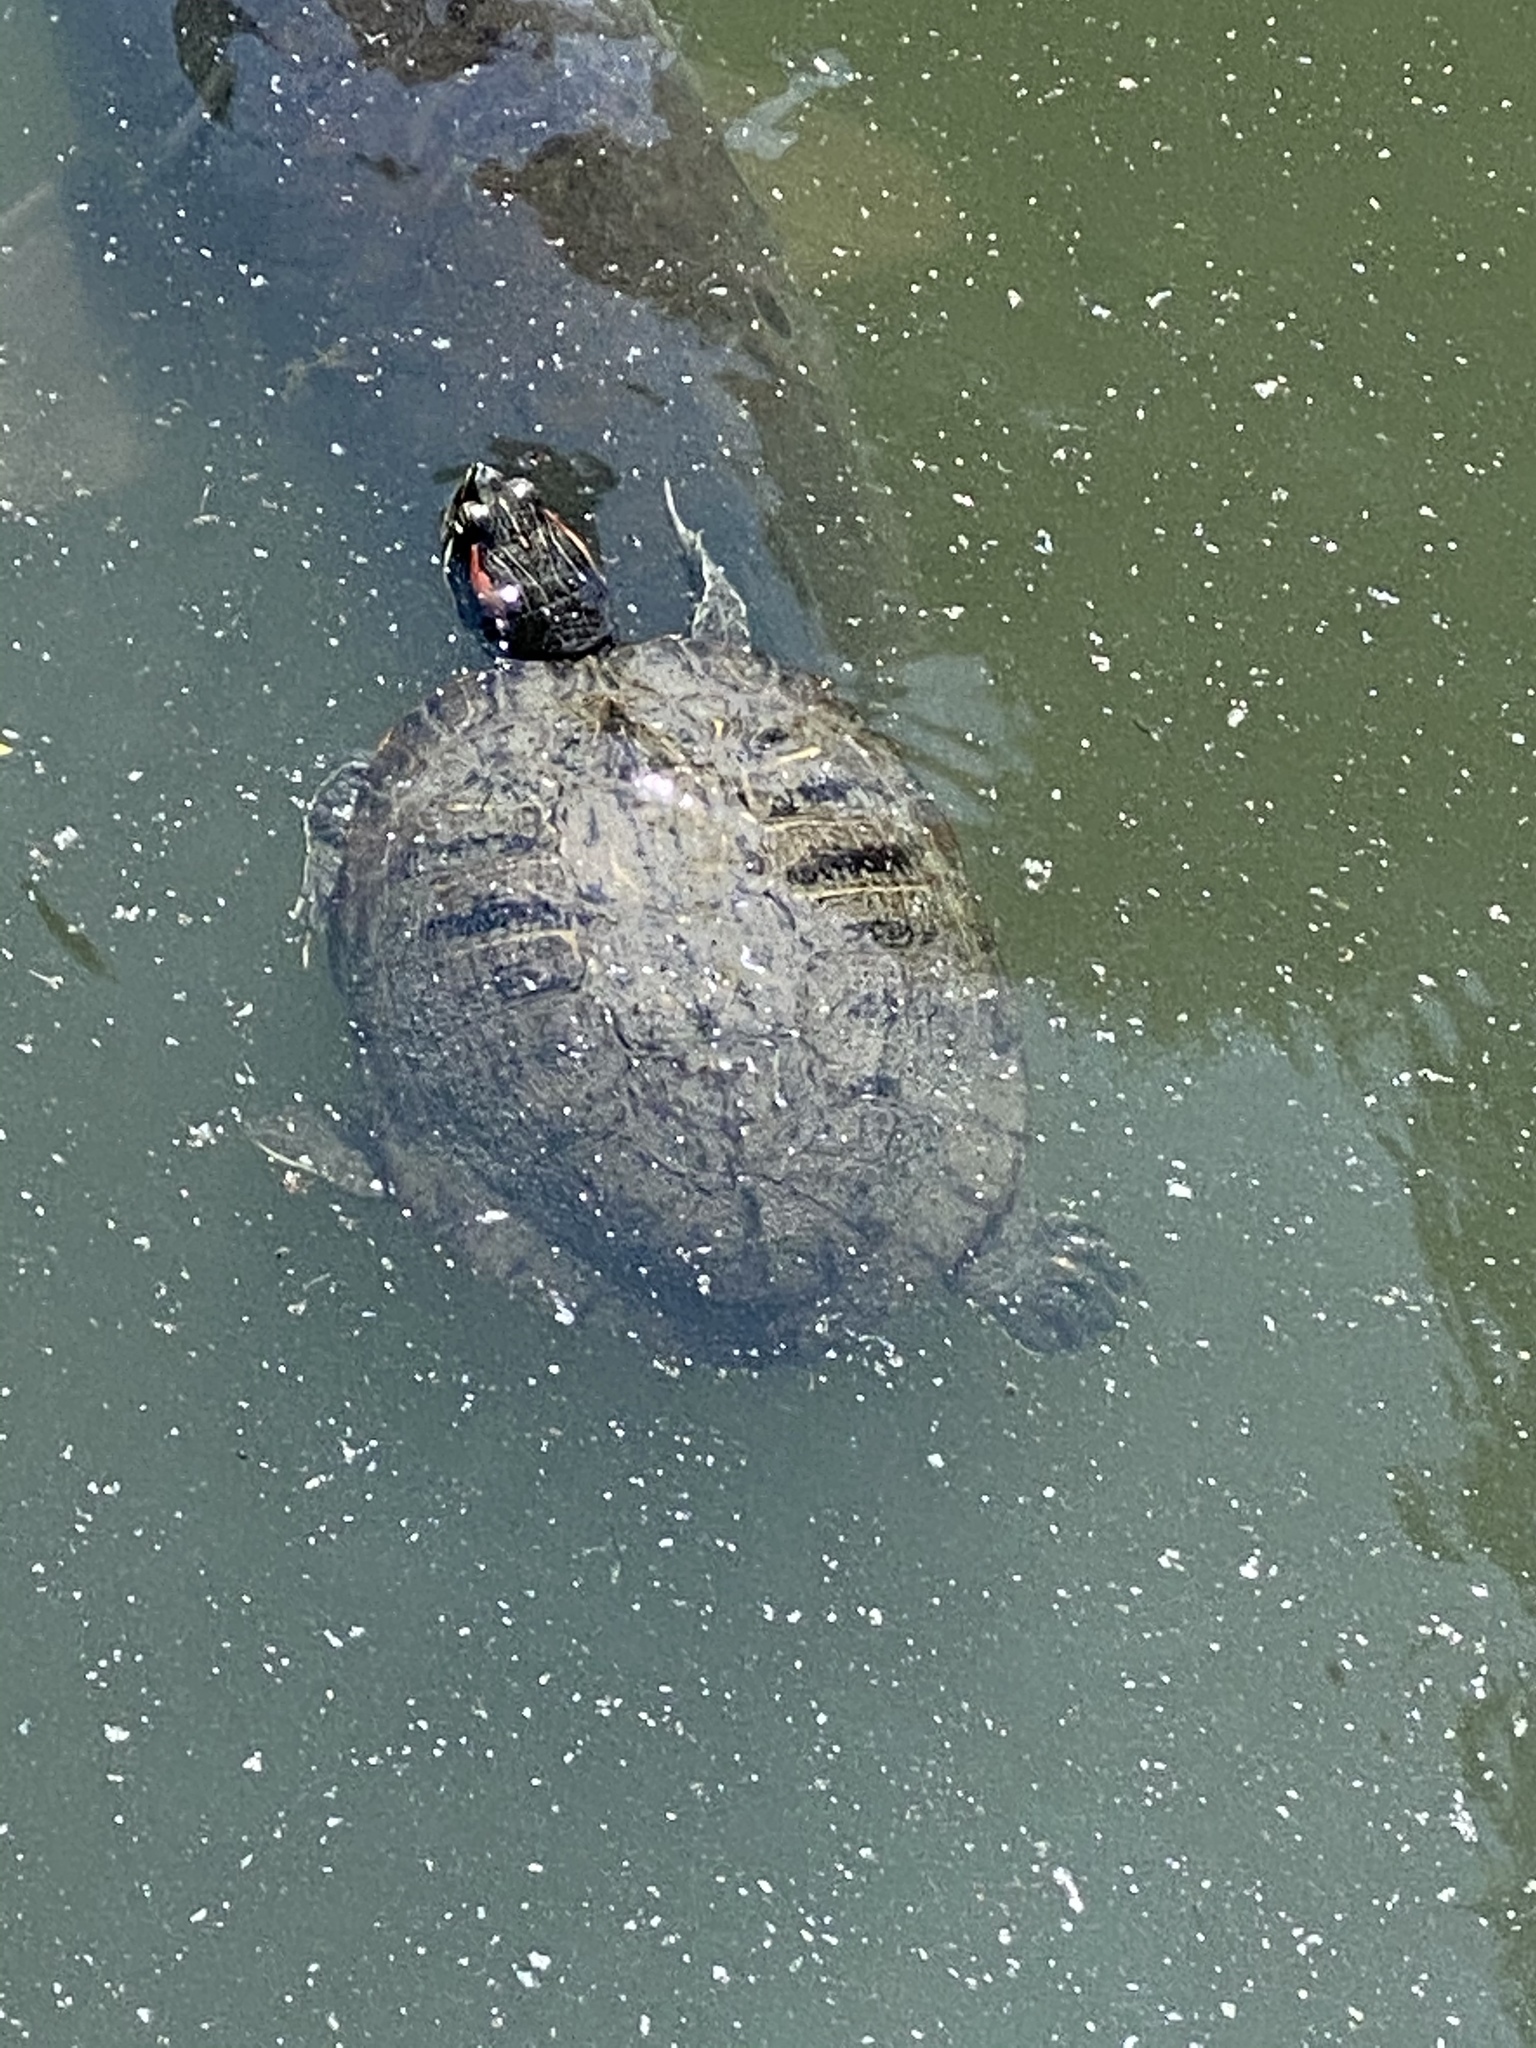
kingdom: Animalia
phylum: Chordata
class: Testudines
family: Emydidae
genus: Trachemys
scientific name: Trachemys scripta
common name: Slider
